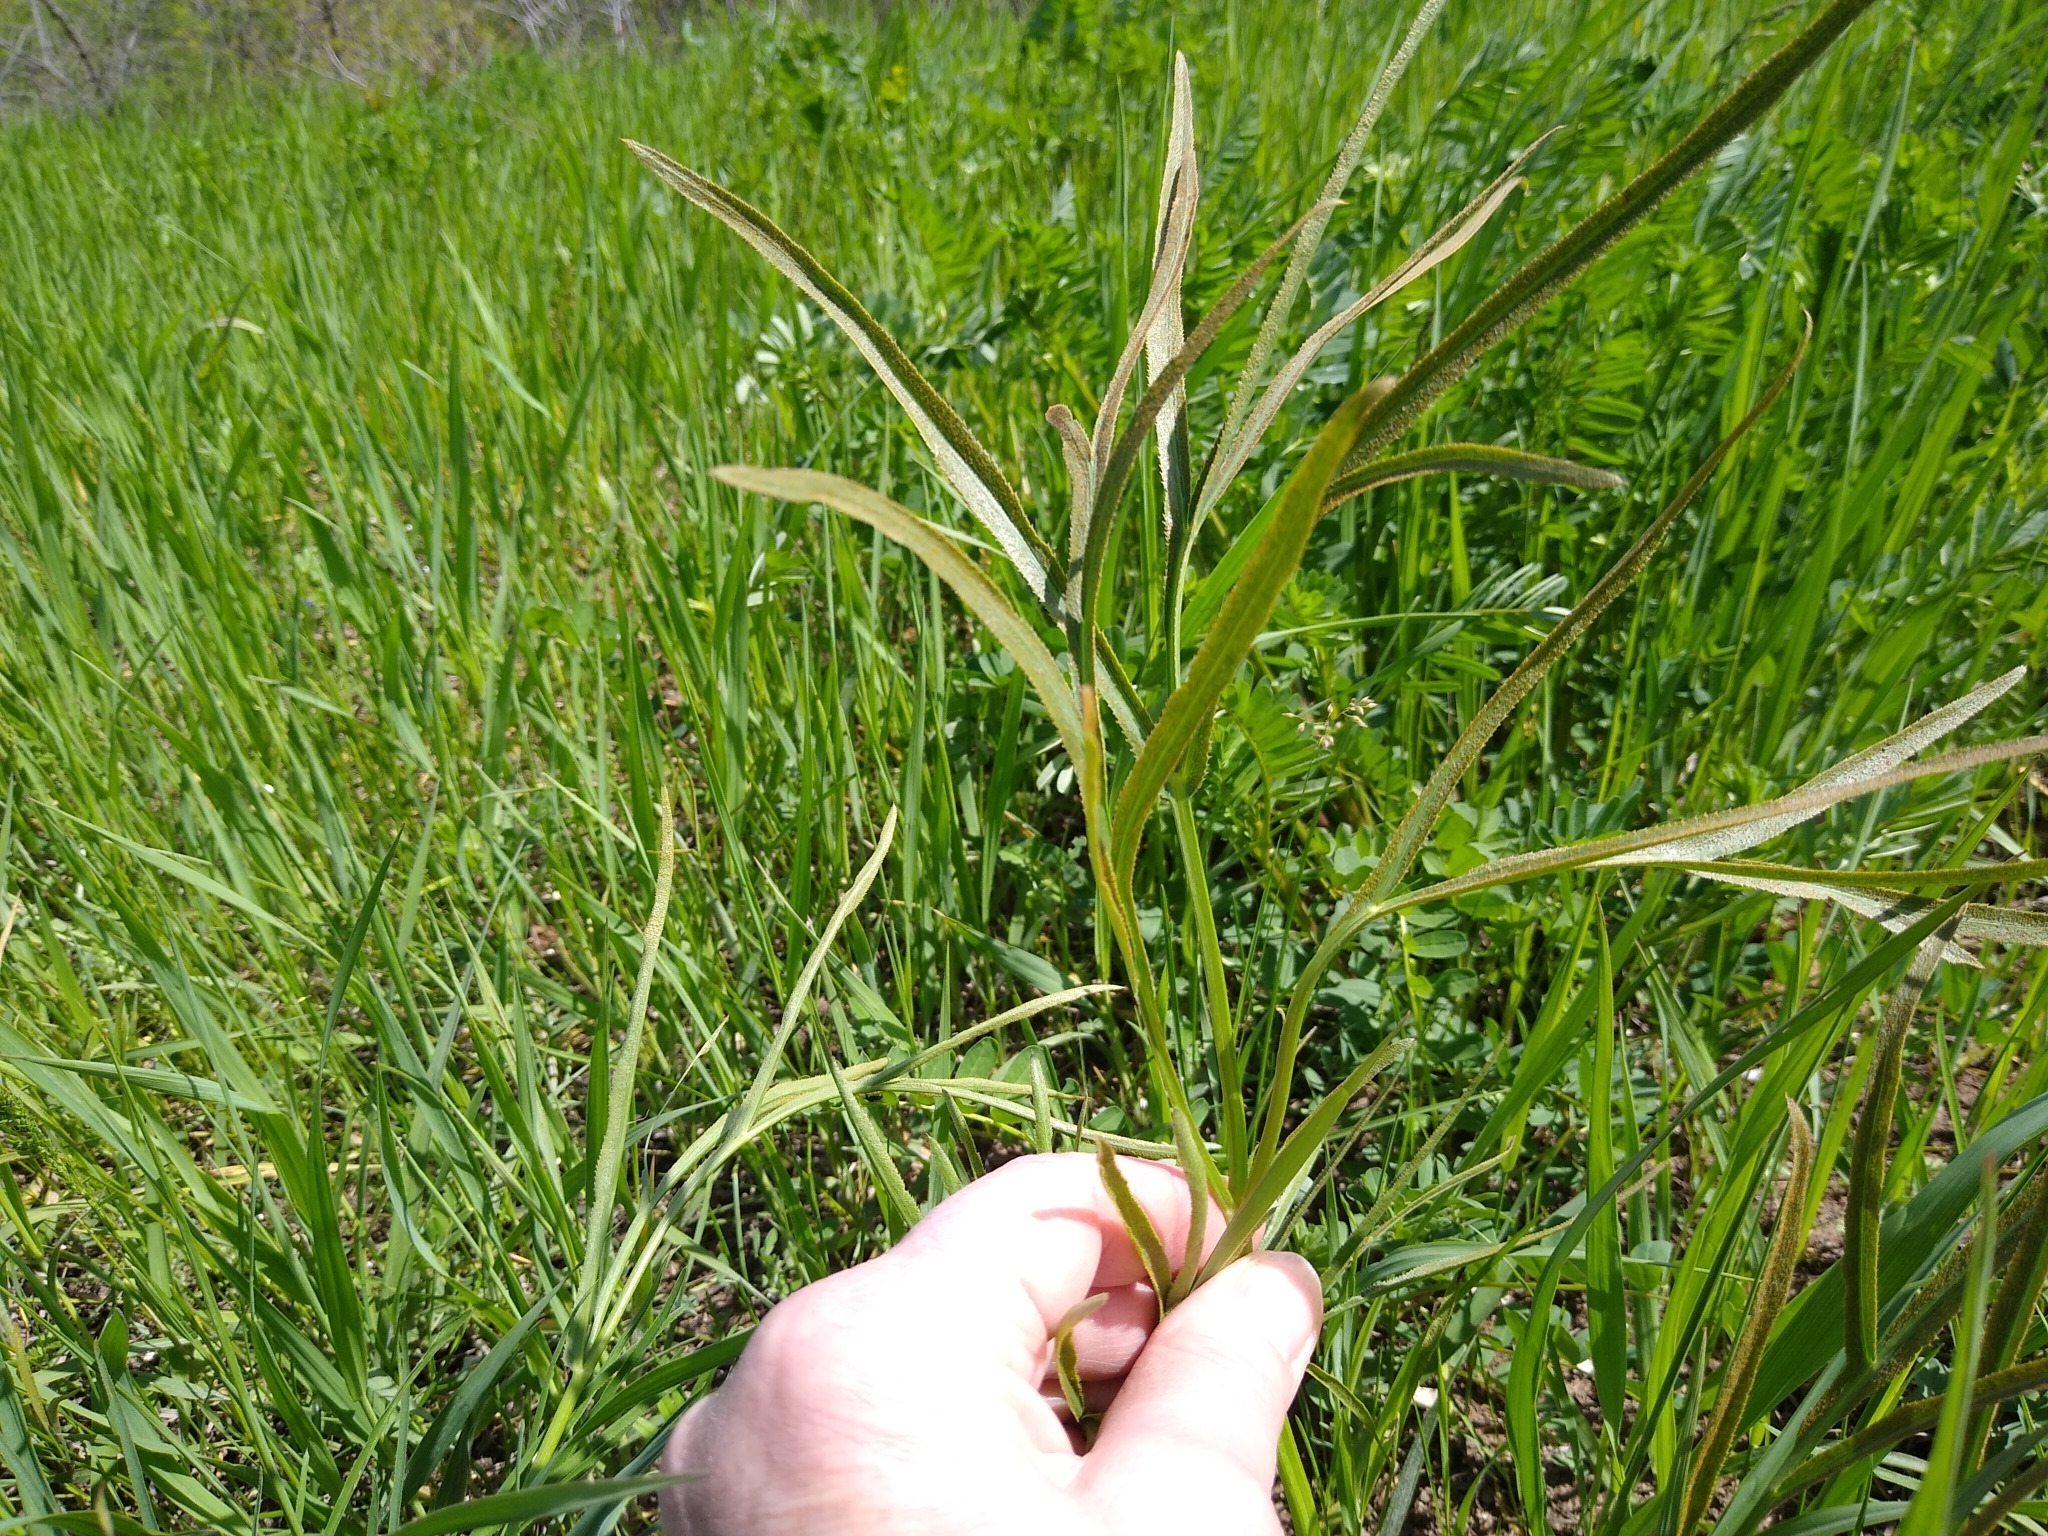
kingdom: Plantae
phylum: Tracheophyta
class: Magnoliopsida
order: Apiales
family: Apiaceae
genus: Falcaria
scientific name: Falcaria vulgaris
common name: Longleaf
